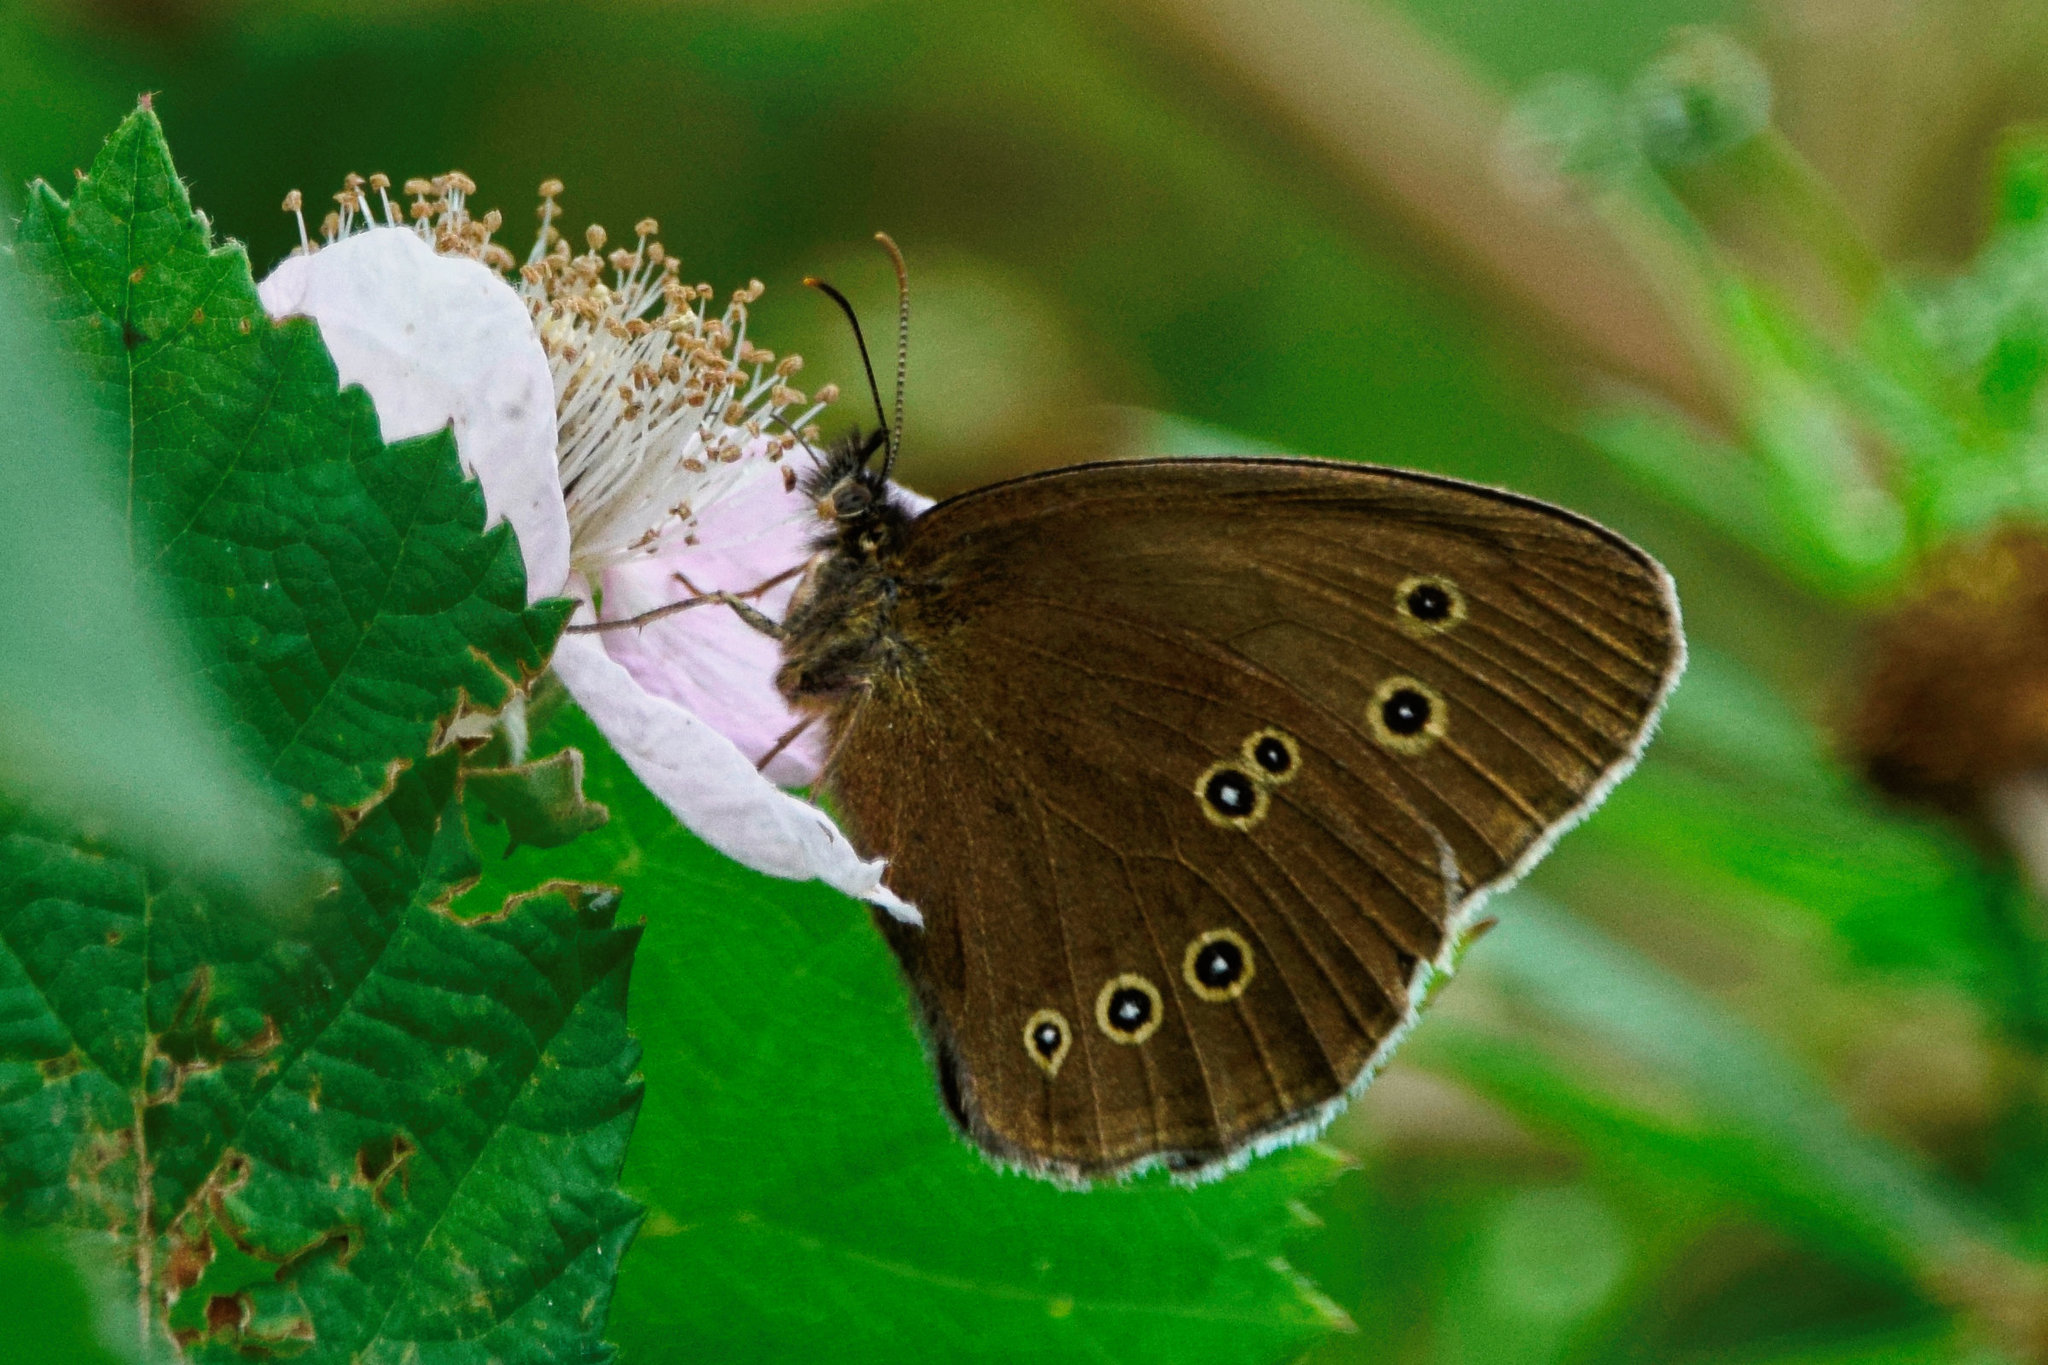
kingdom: Animalia
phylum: Arthropoda
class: Insecta
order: Lepidoptera
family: Nymphalidae
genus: Aphantopus
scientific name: Aphantopus hyperantus
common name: Ringlet
